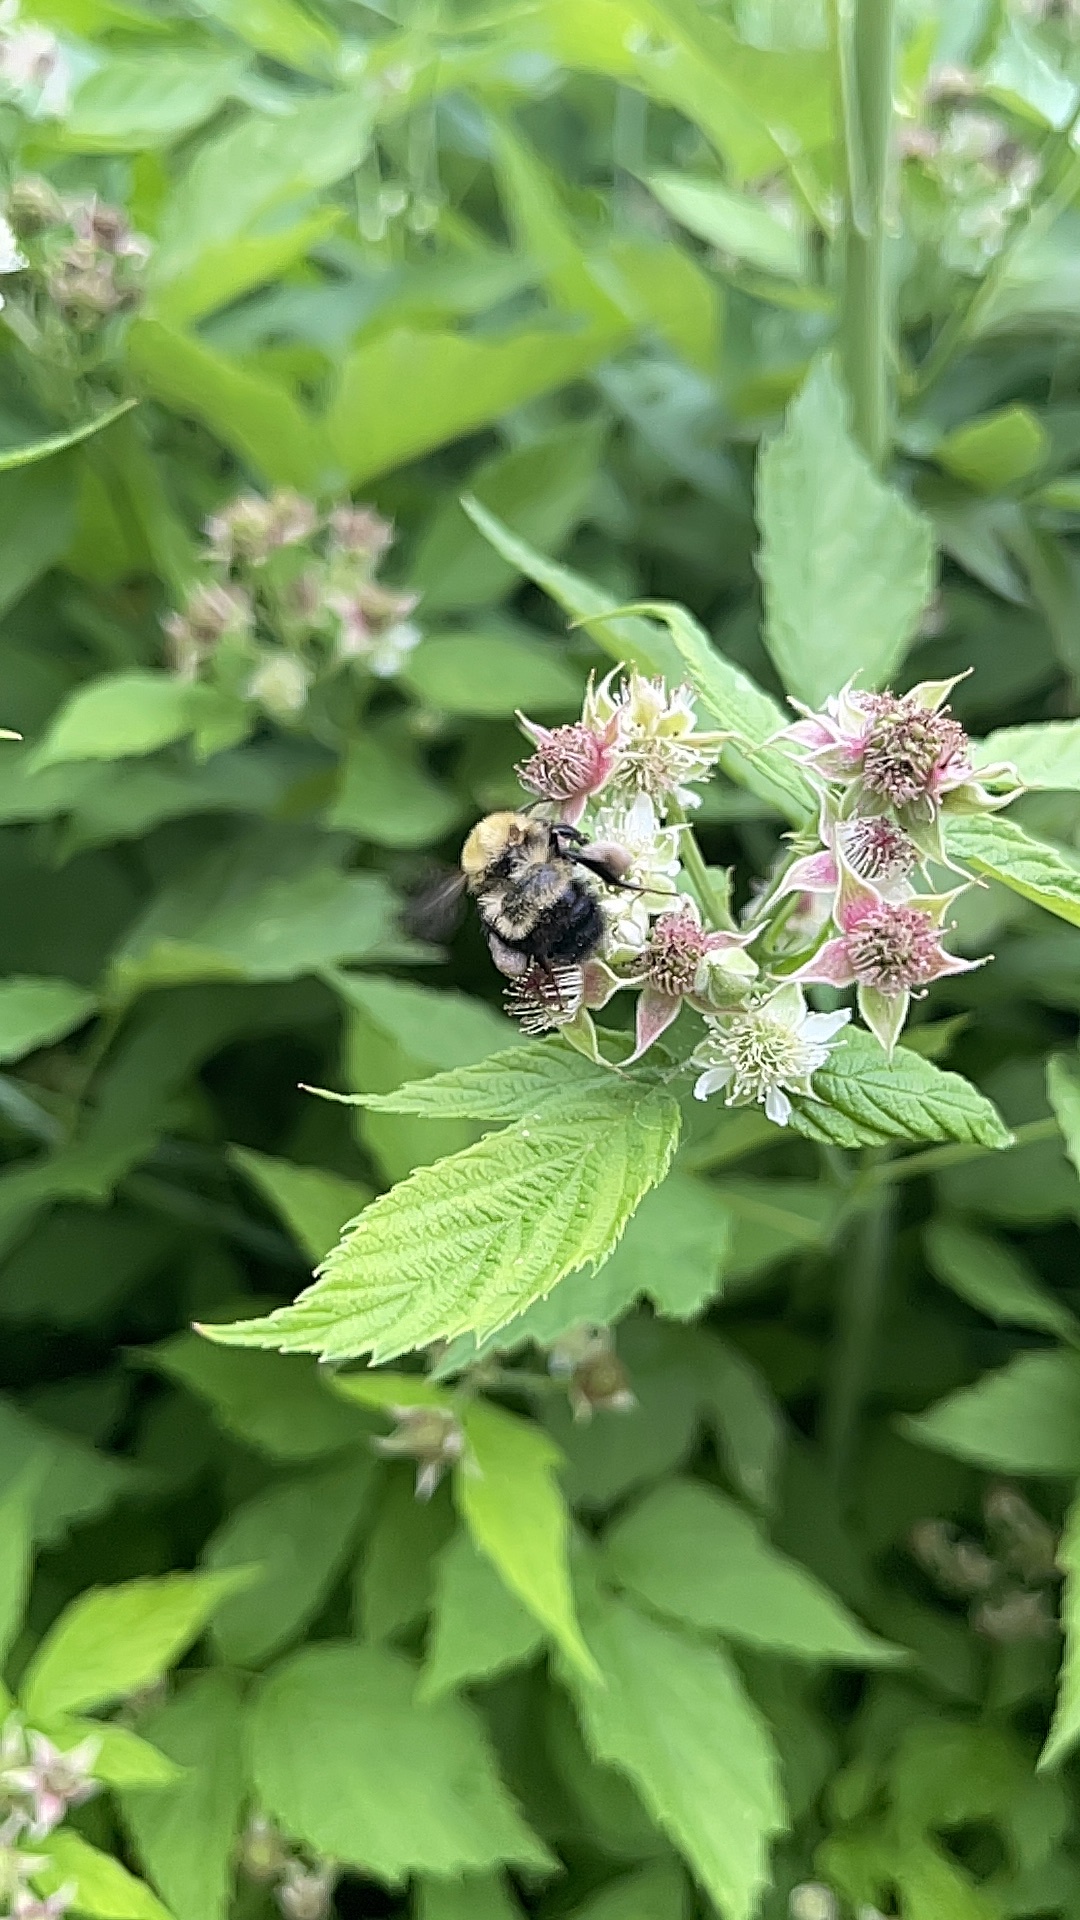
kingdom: Animalia
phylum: Arthropoda
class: Insecta
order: Hymenoptera
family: Apidae
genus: Bombus
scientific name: Bombus perplexus
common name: Confusing bumble bee
